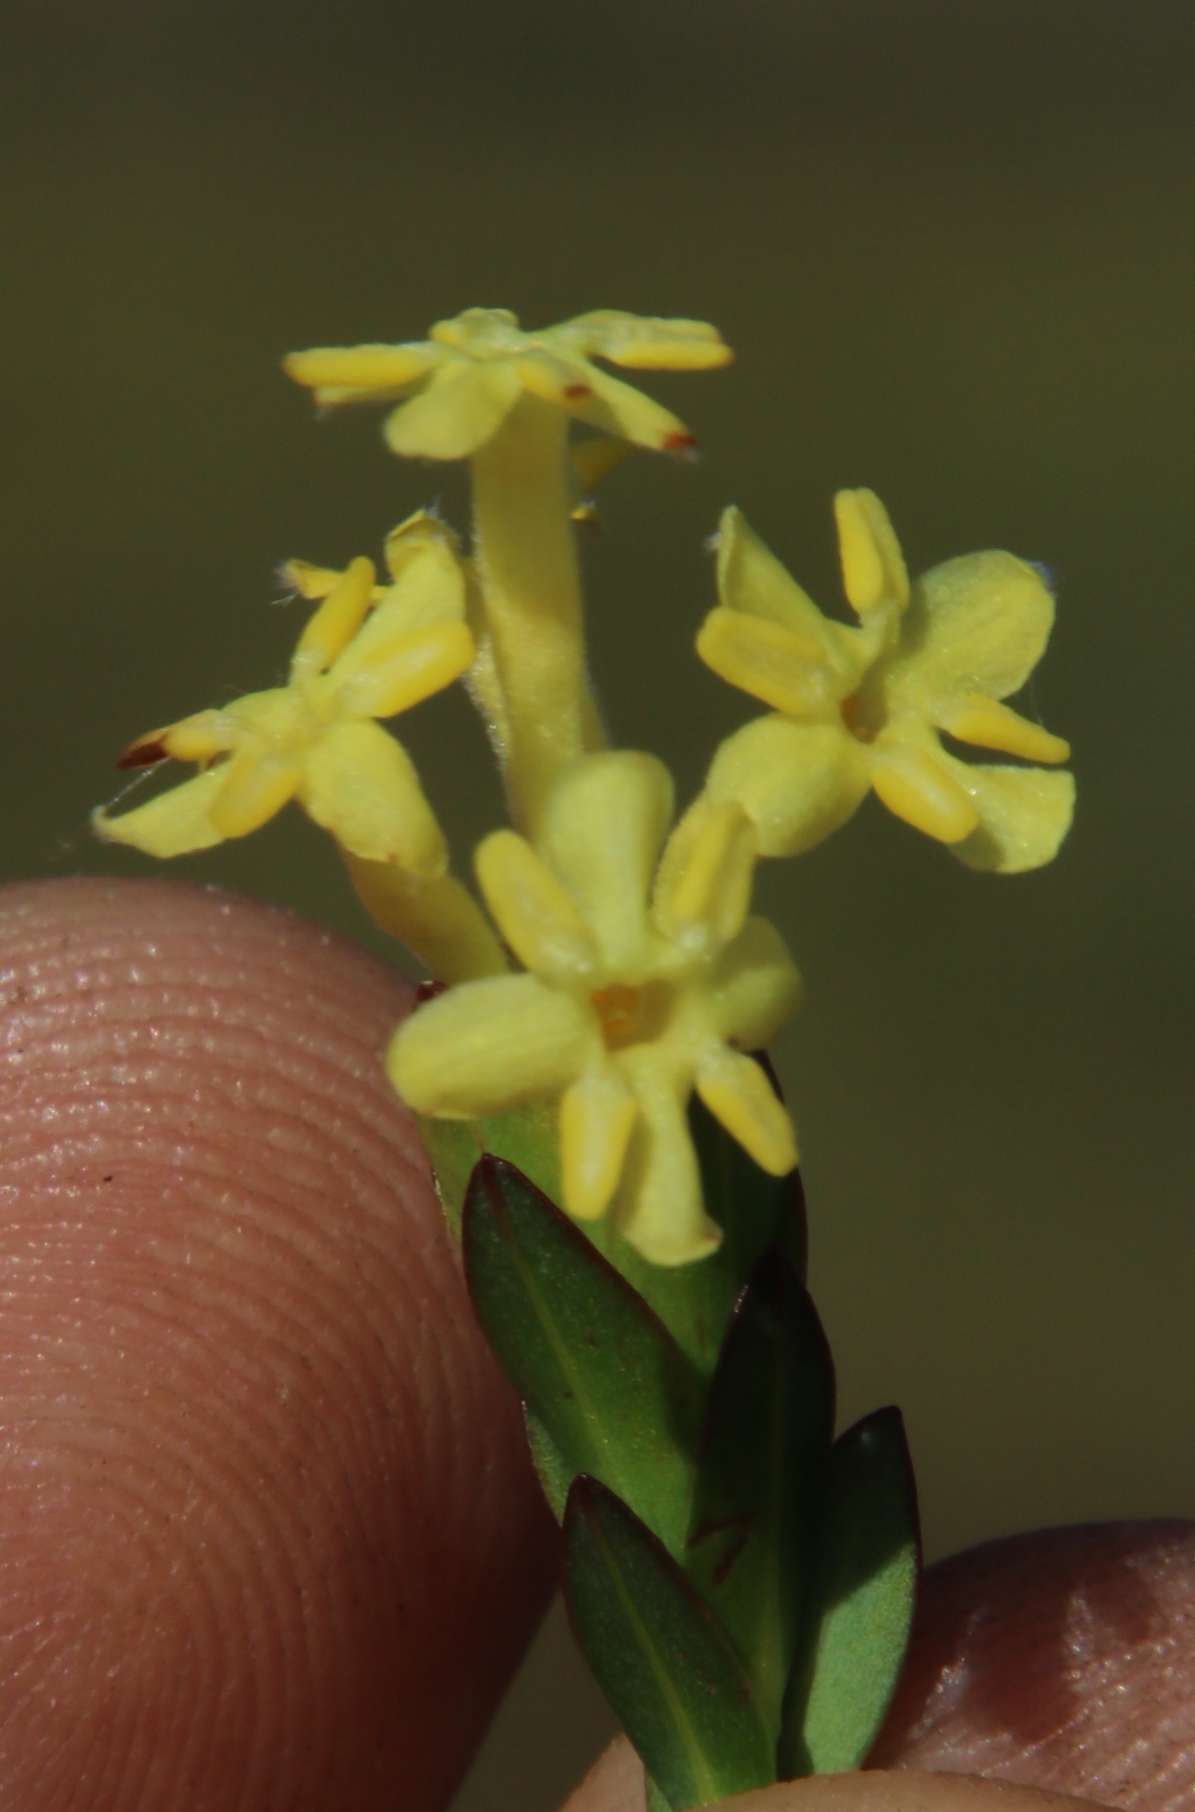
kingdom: Plantae
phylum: Tracheophyta
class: Magnoliopsida
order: Malvales
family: Thymelaeaceae
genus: Gnidia
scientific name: Gnidia oppositifolia
